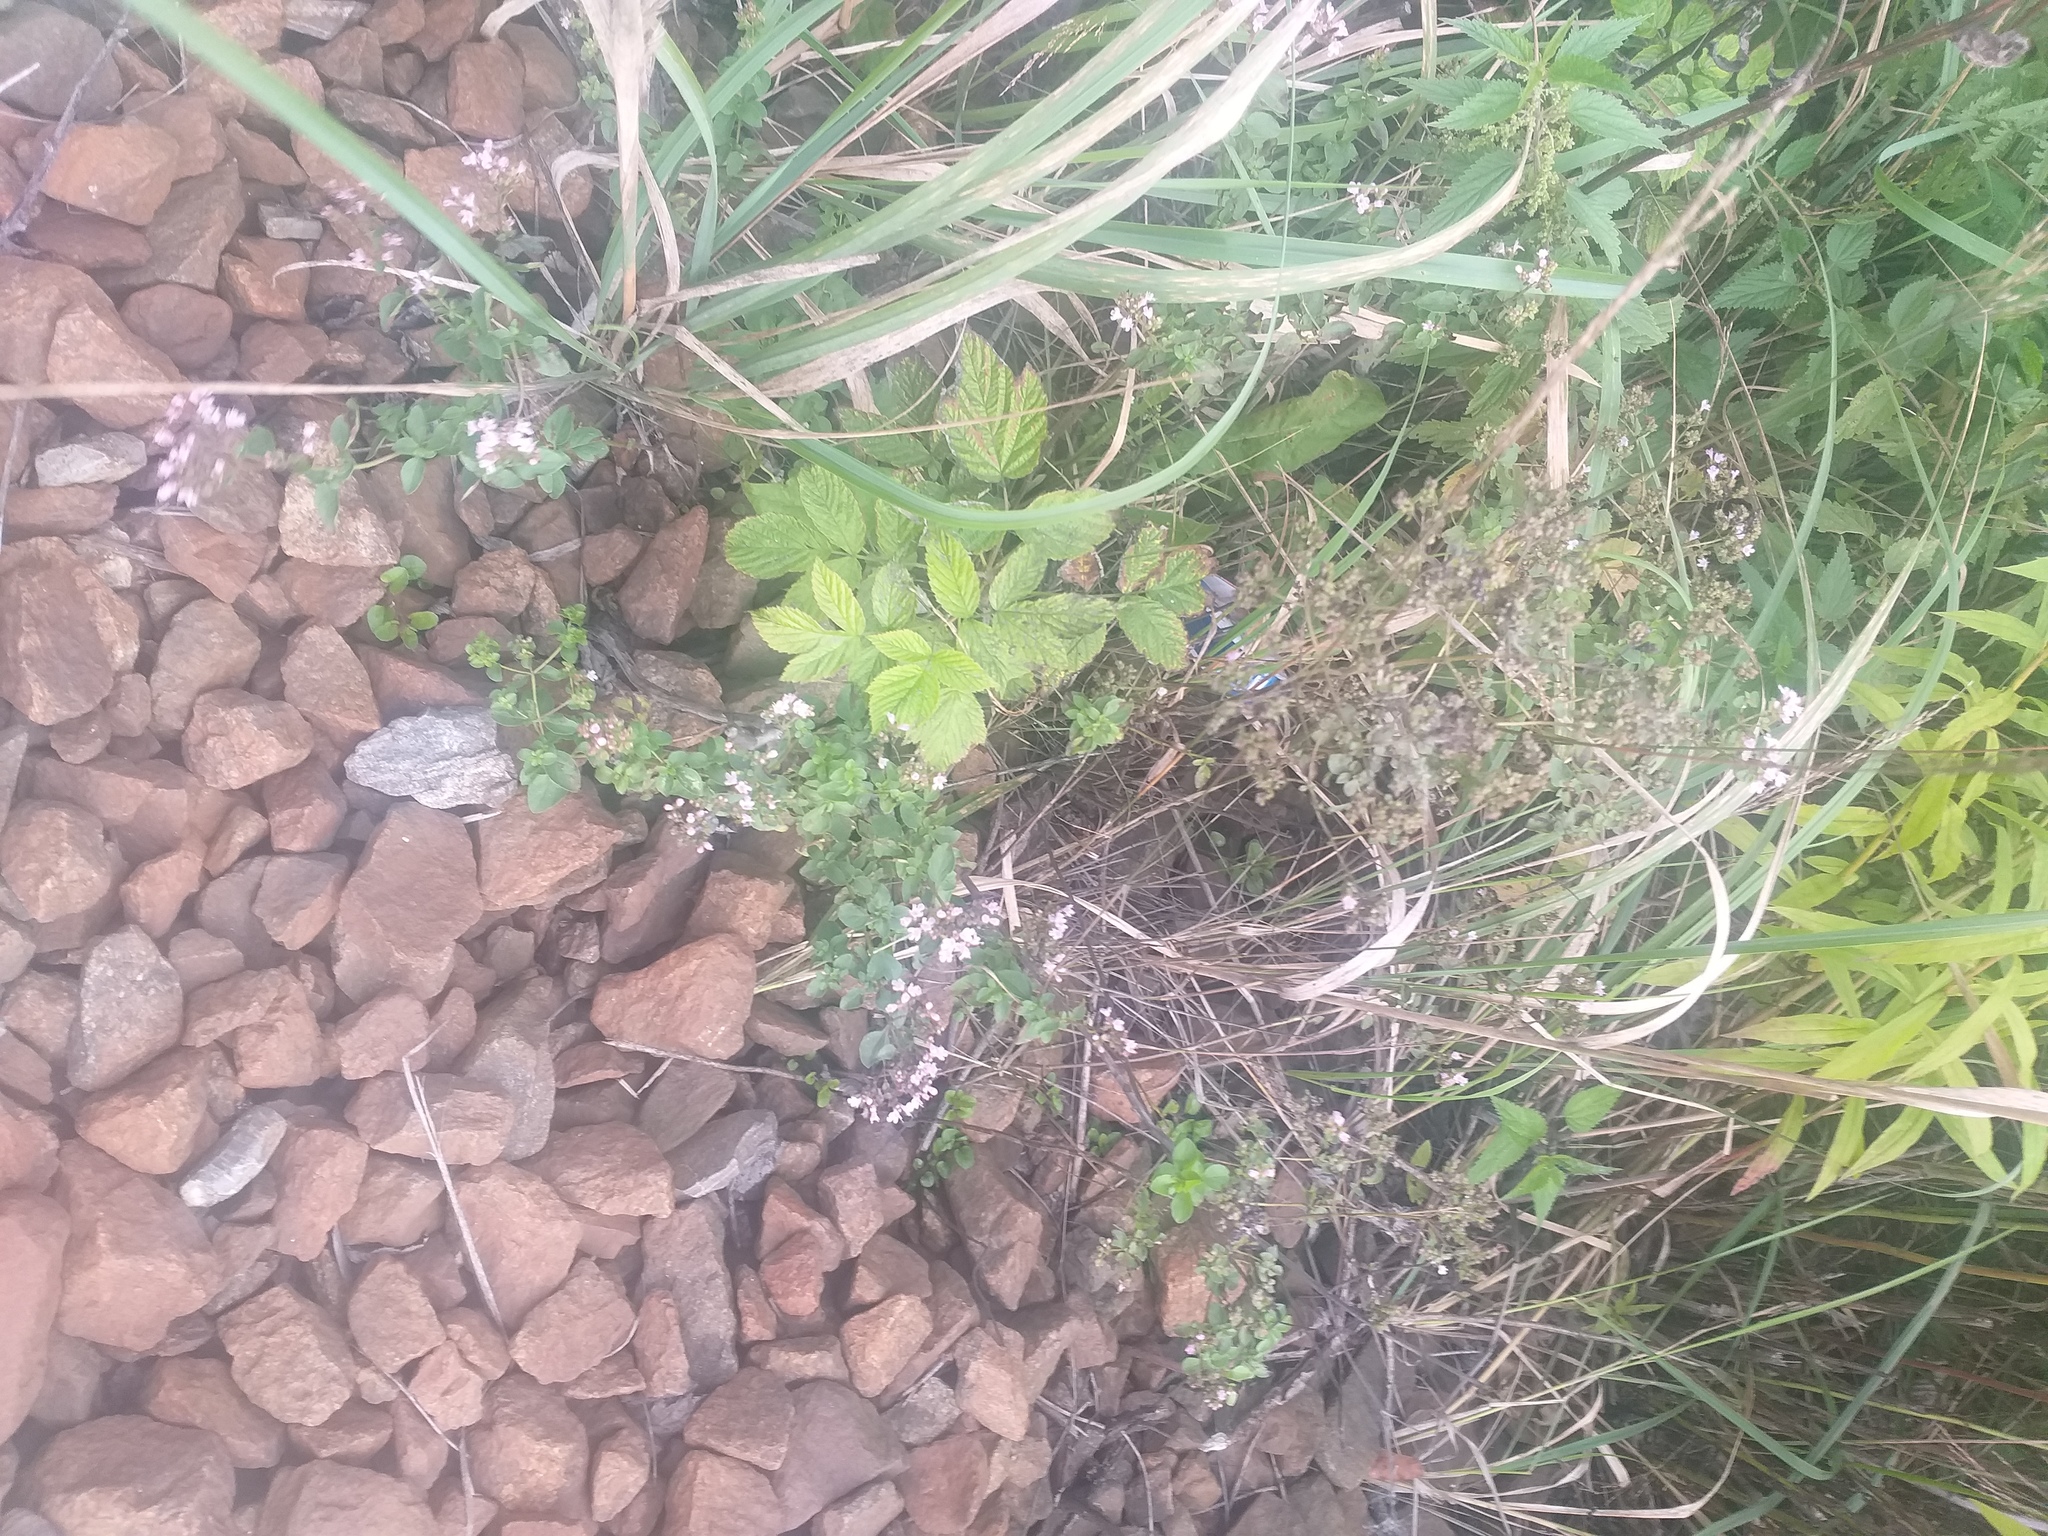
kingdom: Plantae
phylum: Tracheophyta
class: Magnoliopsida
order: Lamiales
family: Lamiaceae
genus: Origanum
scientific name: Origanum vulgare
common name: Wild marjoram
